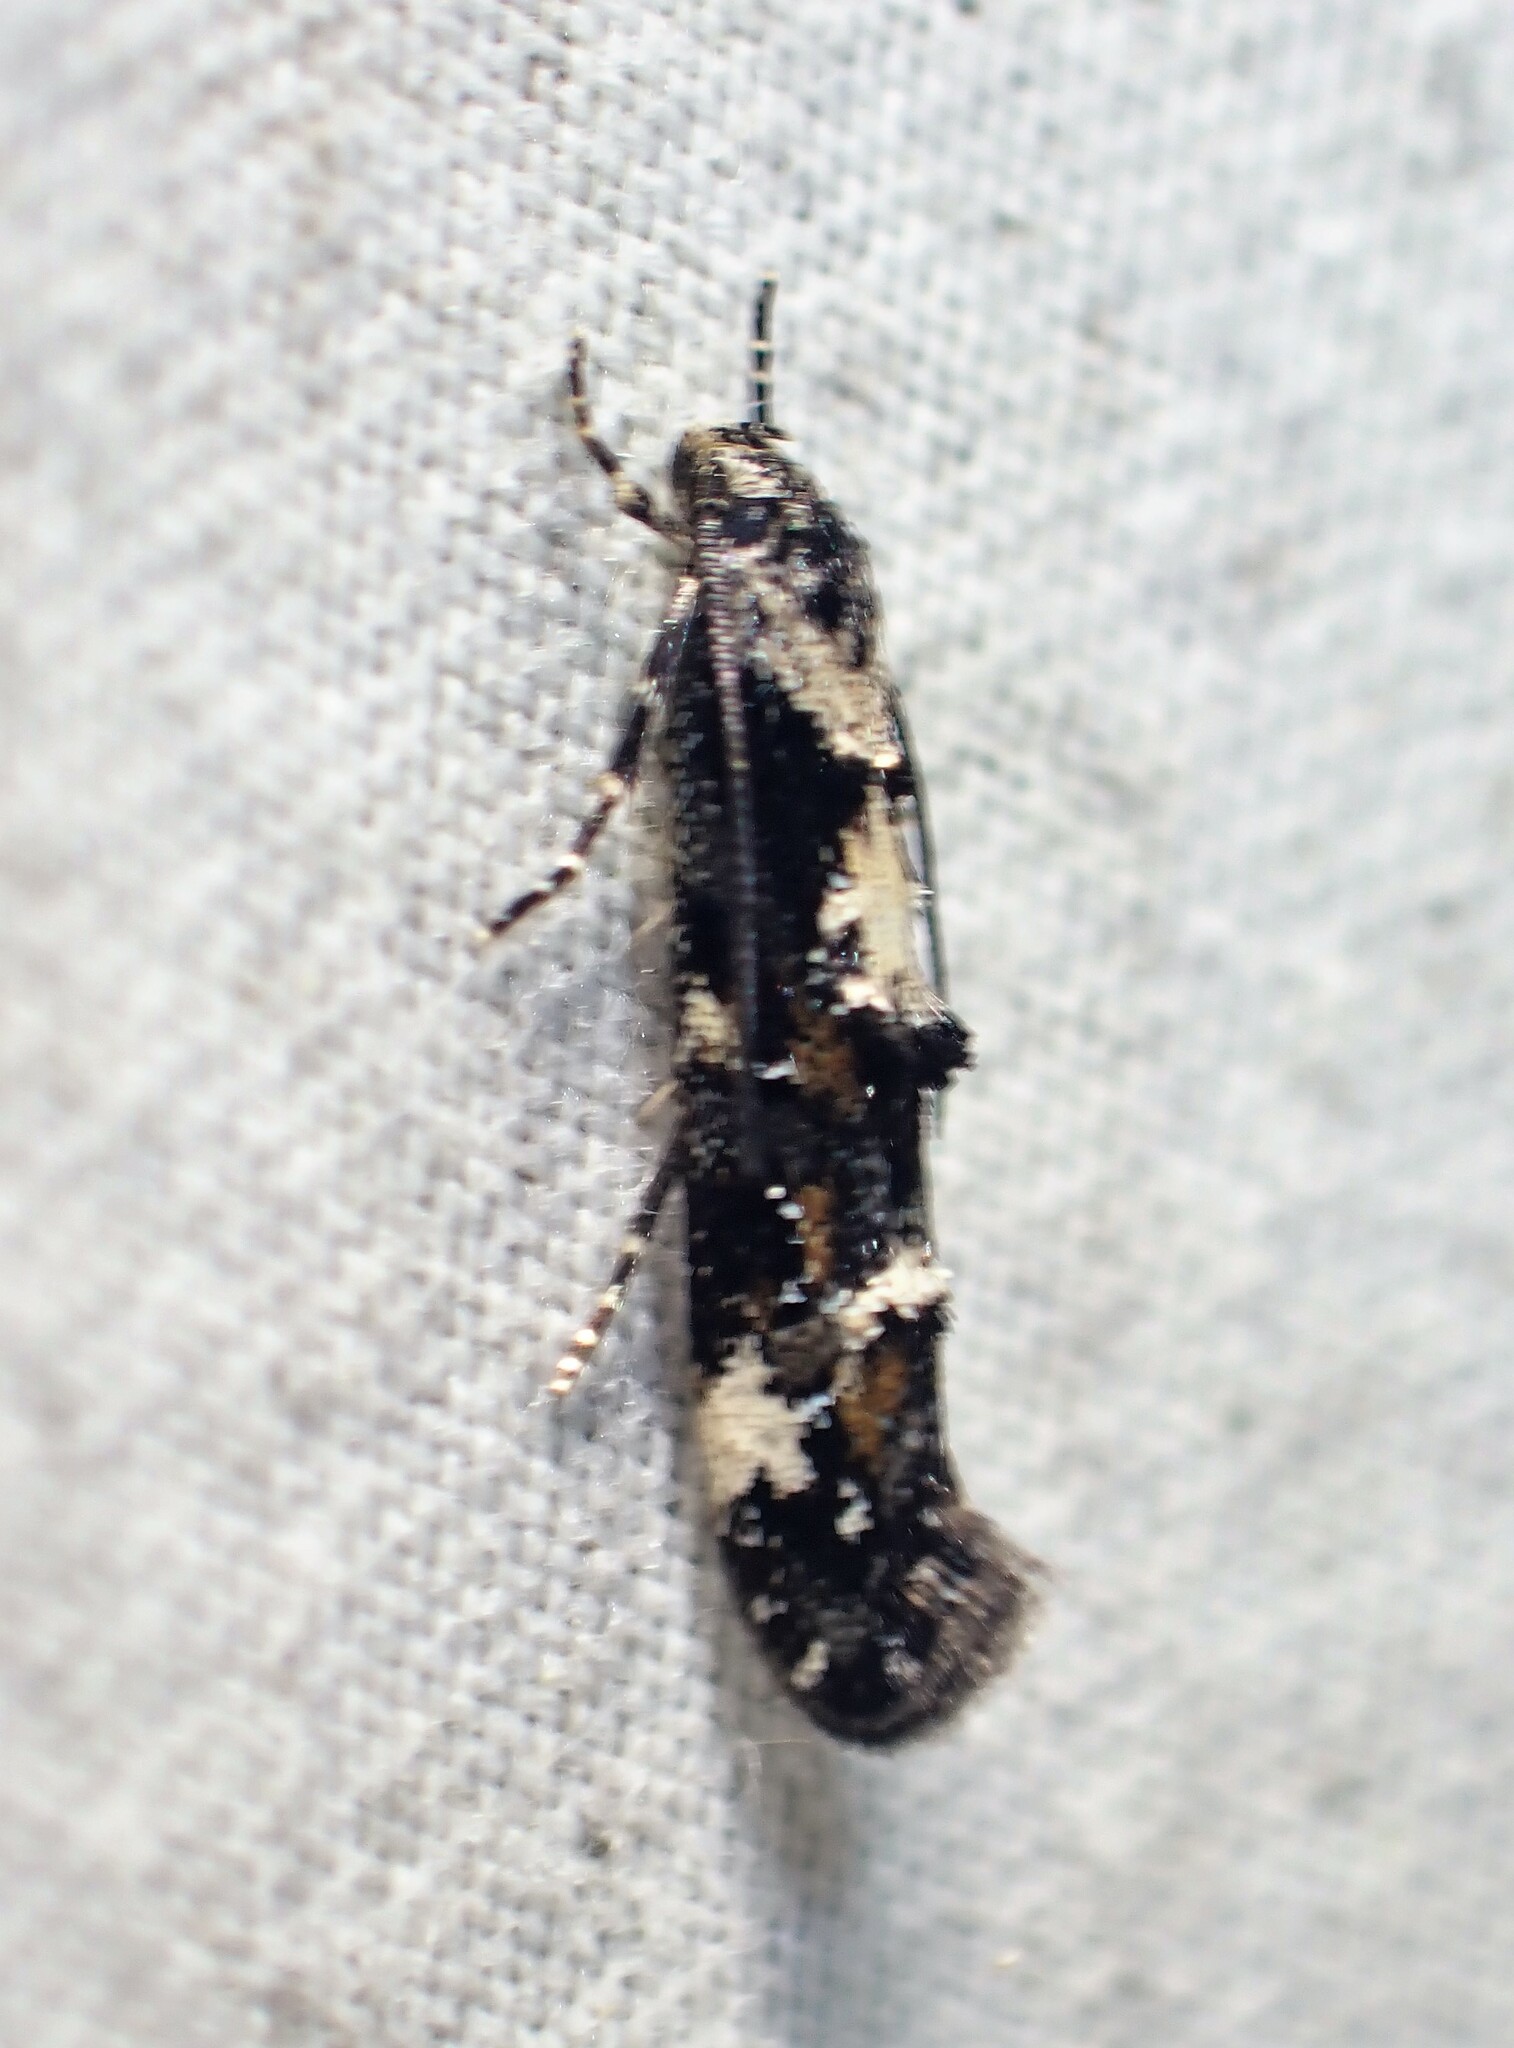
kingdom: Animalia
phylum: Arthropoda
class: Insecta
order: Lepidoptera
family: Momphidae
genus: Mompha
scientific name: Mompha conturbatella
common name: Large dark mompha
